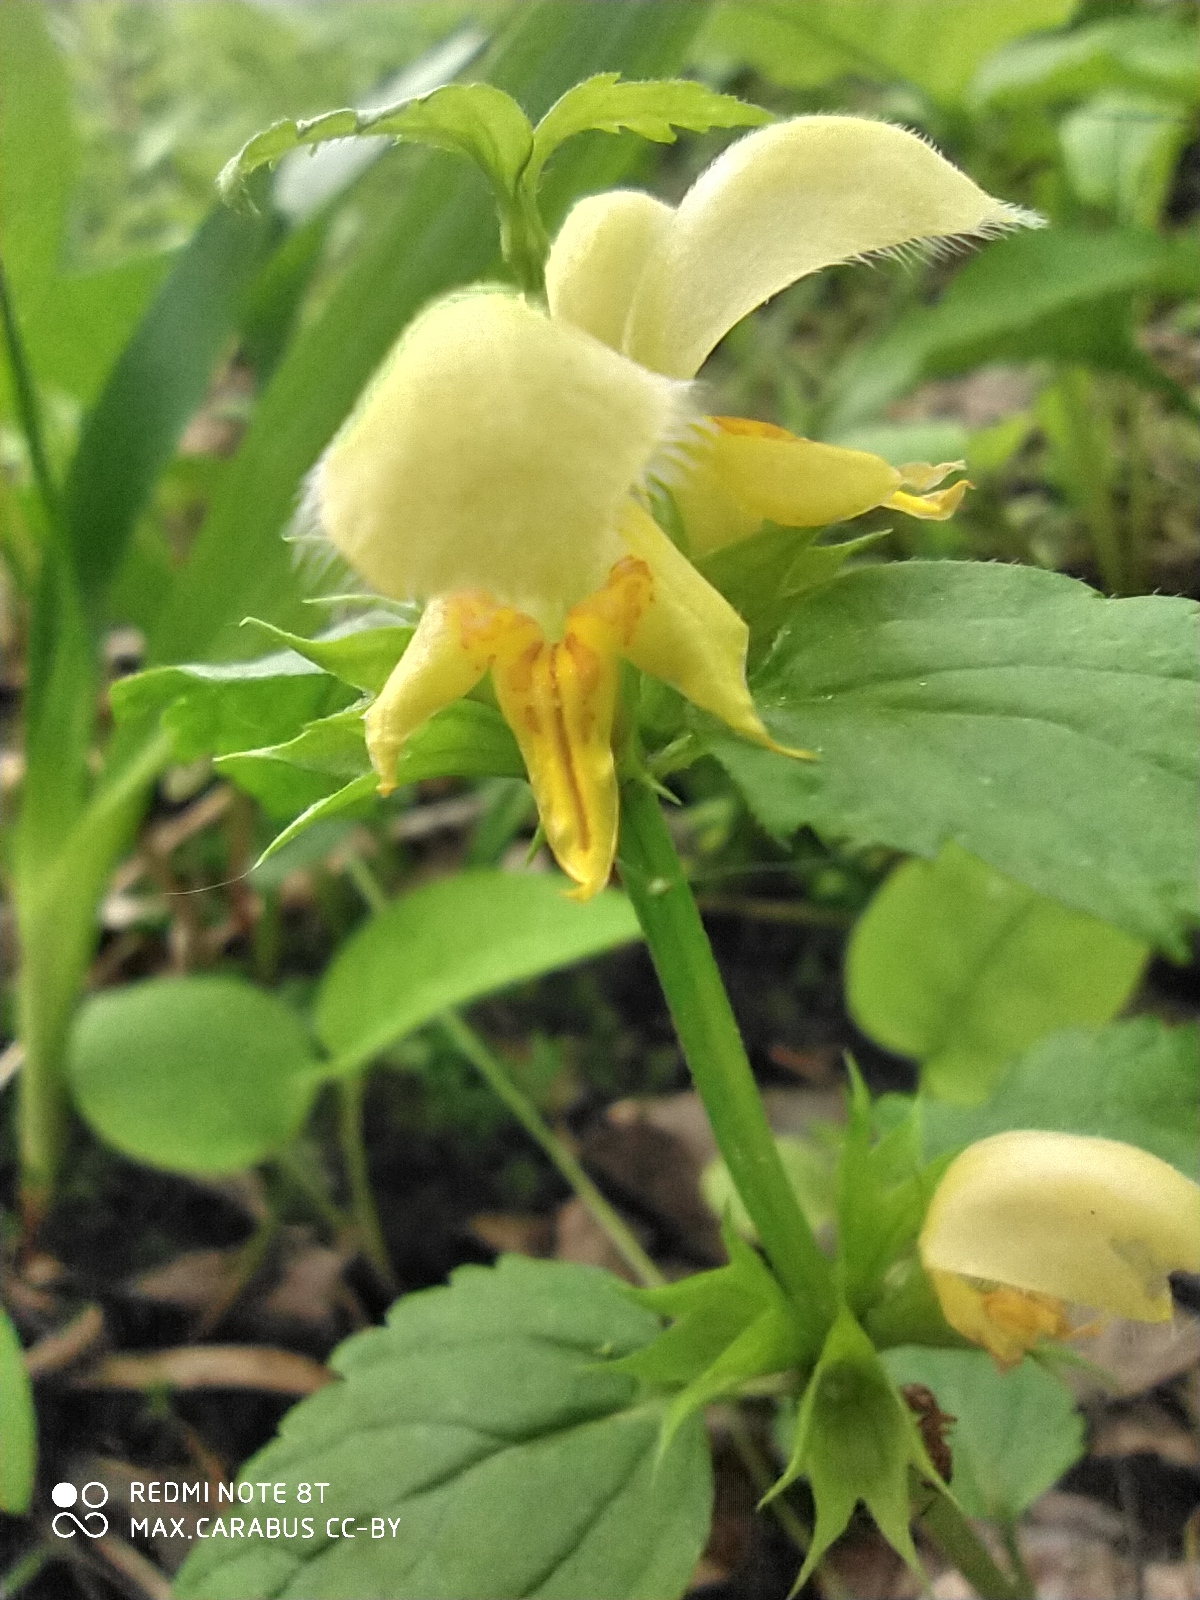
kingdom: Plantae
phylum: Tracheophyta
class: Magnoliopsida
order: Lamiales
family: Lamiaceae
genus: Lamium
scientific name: Lamium galeobdolon
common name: Yellow archangel
